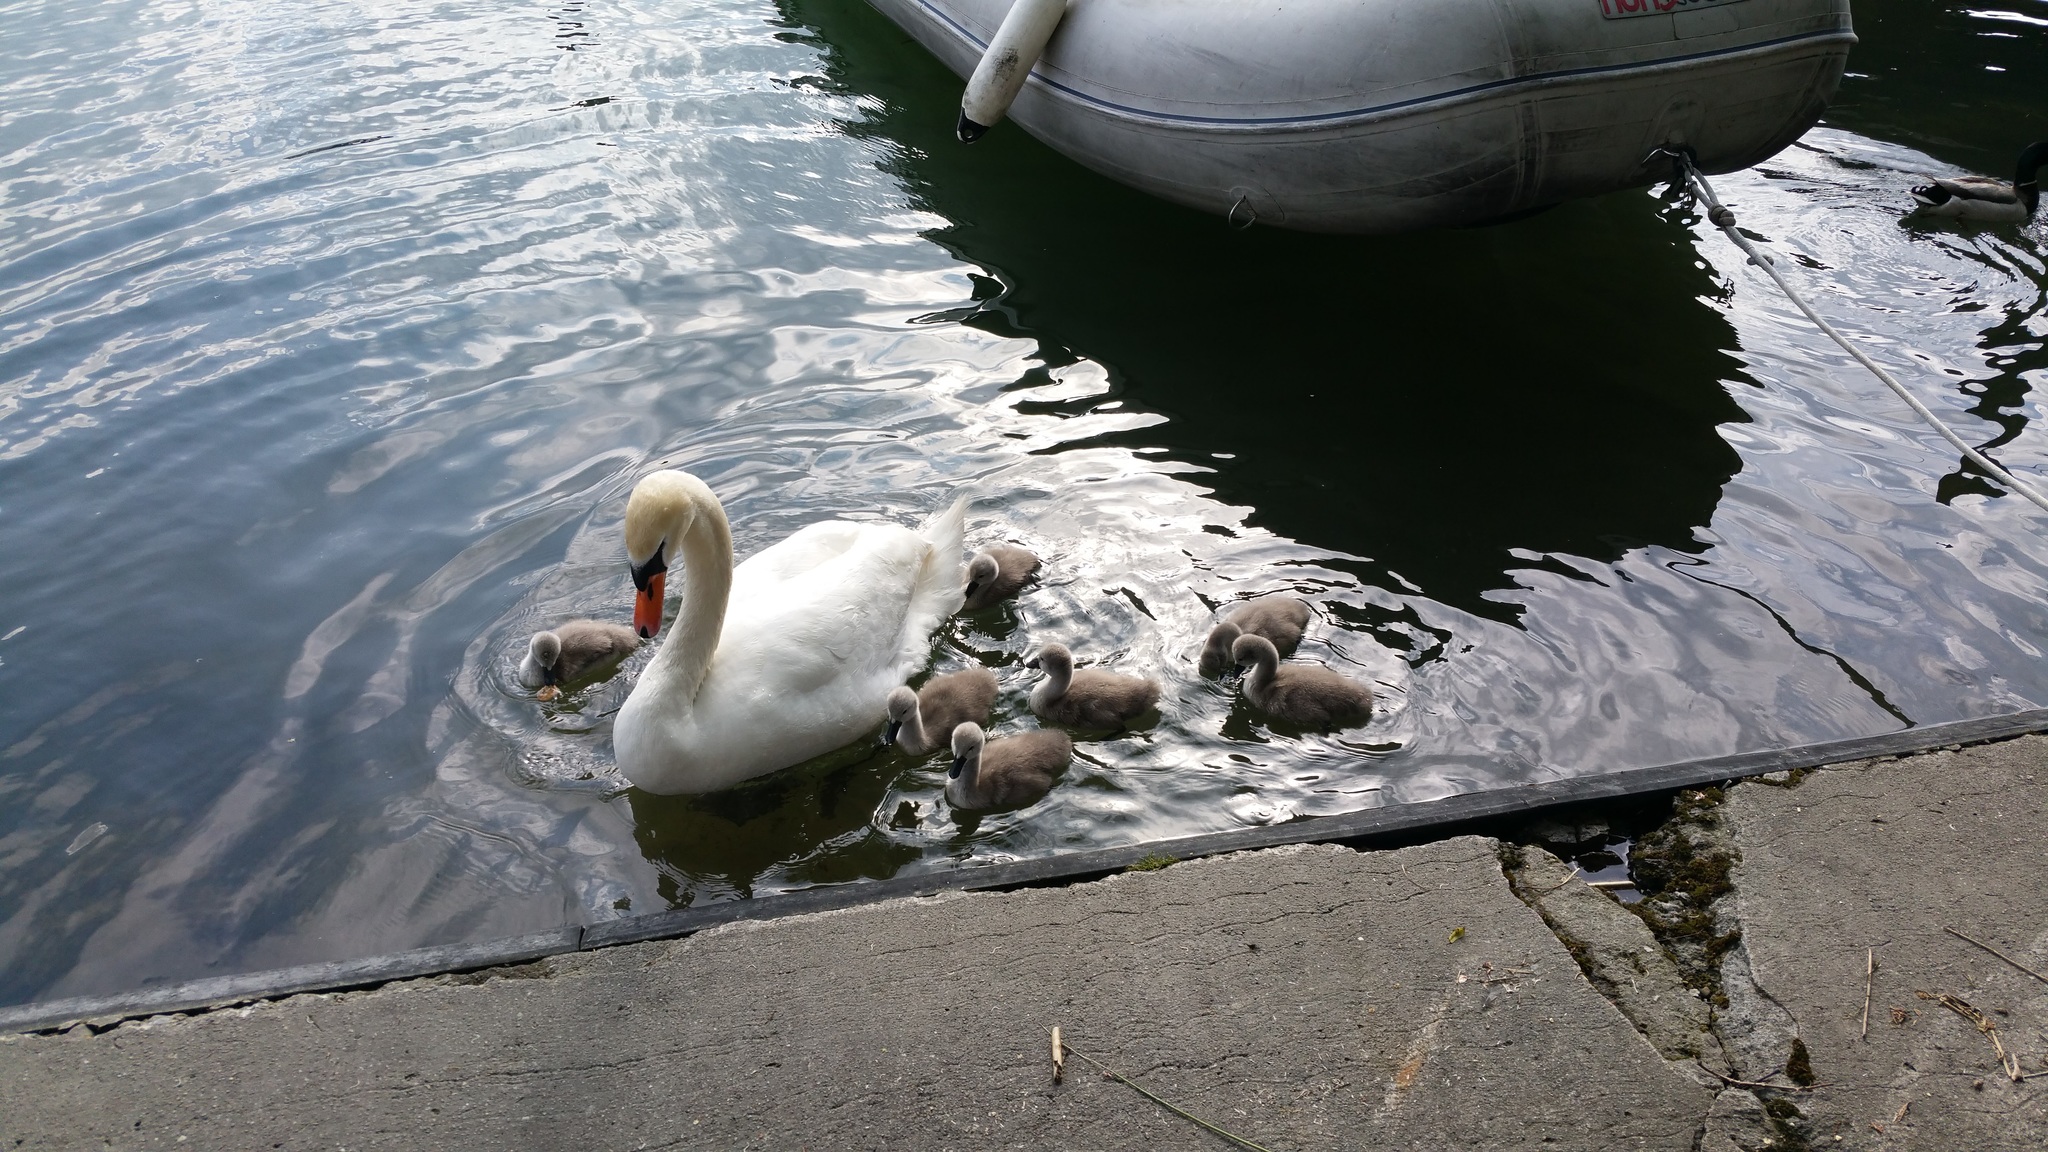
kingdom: Animalia
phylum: Chordata
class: Aves
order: Anseriformes
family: Anatidae
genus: Cygnus
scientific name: Cygnus olor
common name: Mute swan
